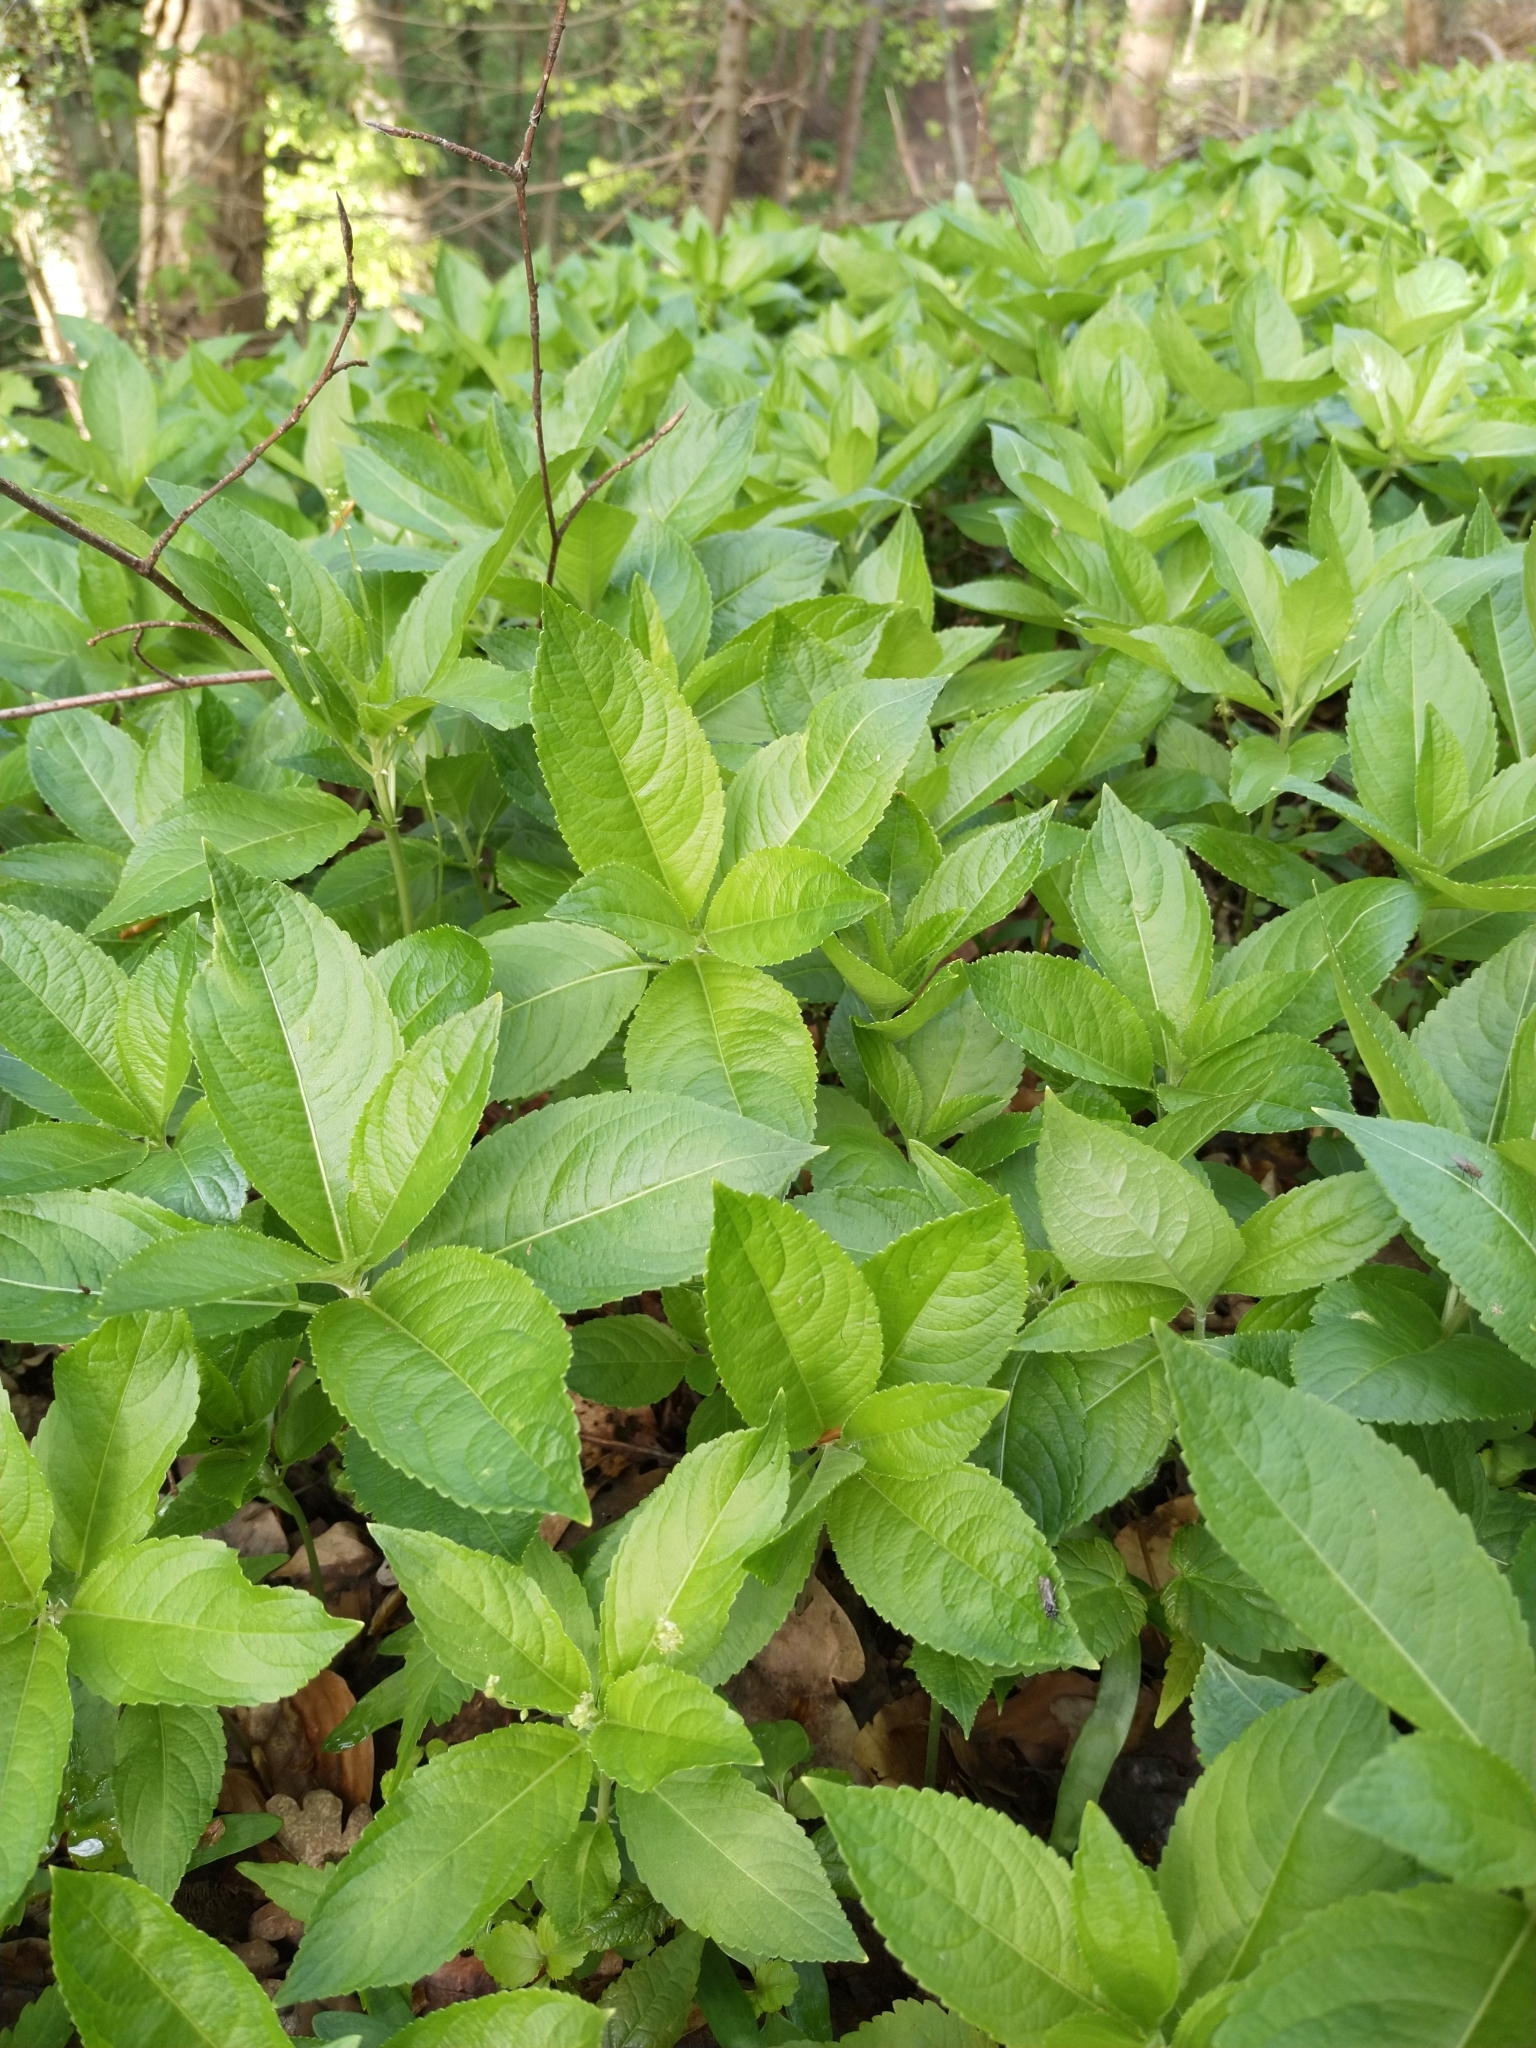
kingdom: Plantae
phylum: Tracheophyta
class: Magnoliopsida
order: Ericales
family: Balsaminaceae
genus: Impatiens
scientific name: Impatiens parviflora
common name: Small balsam
